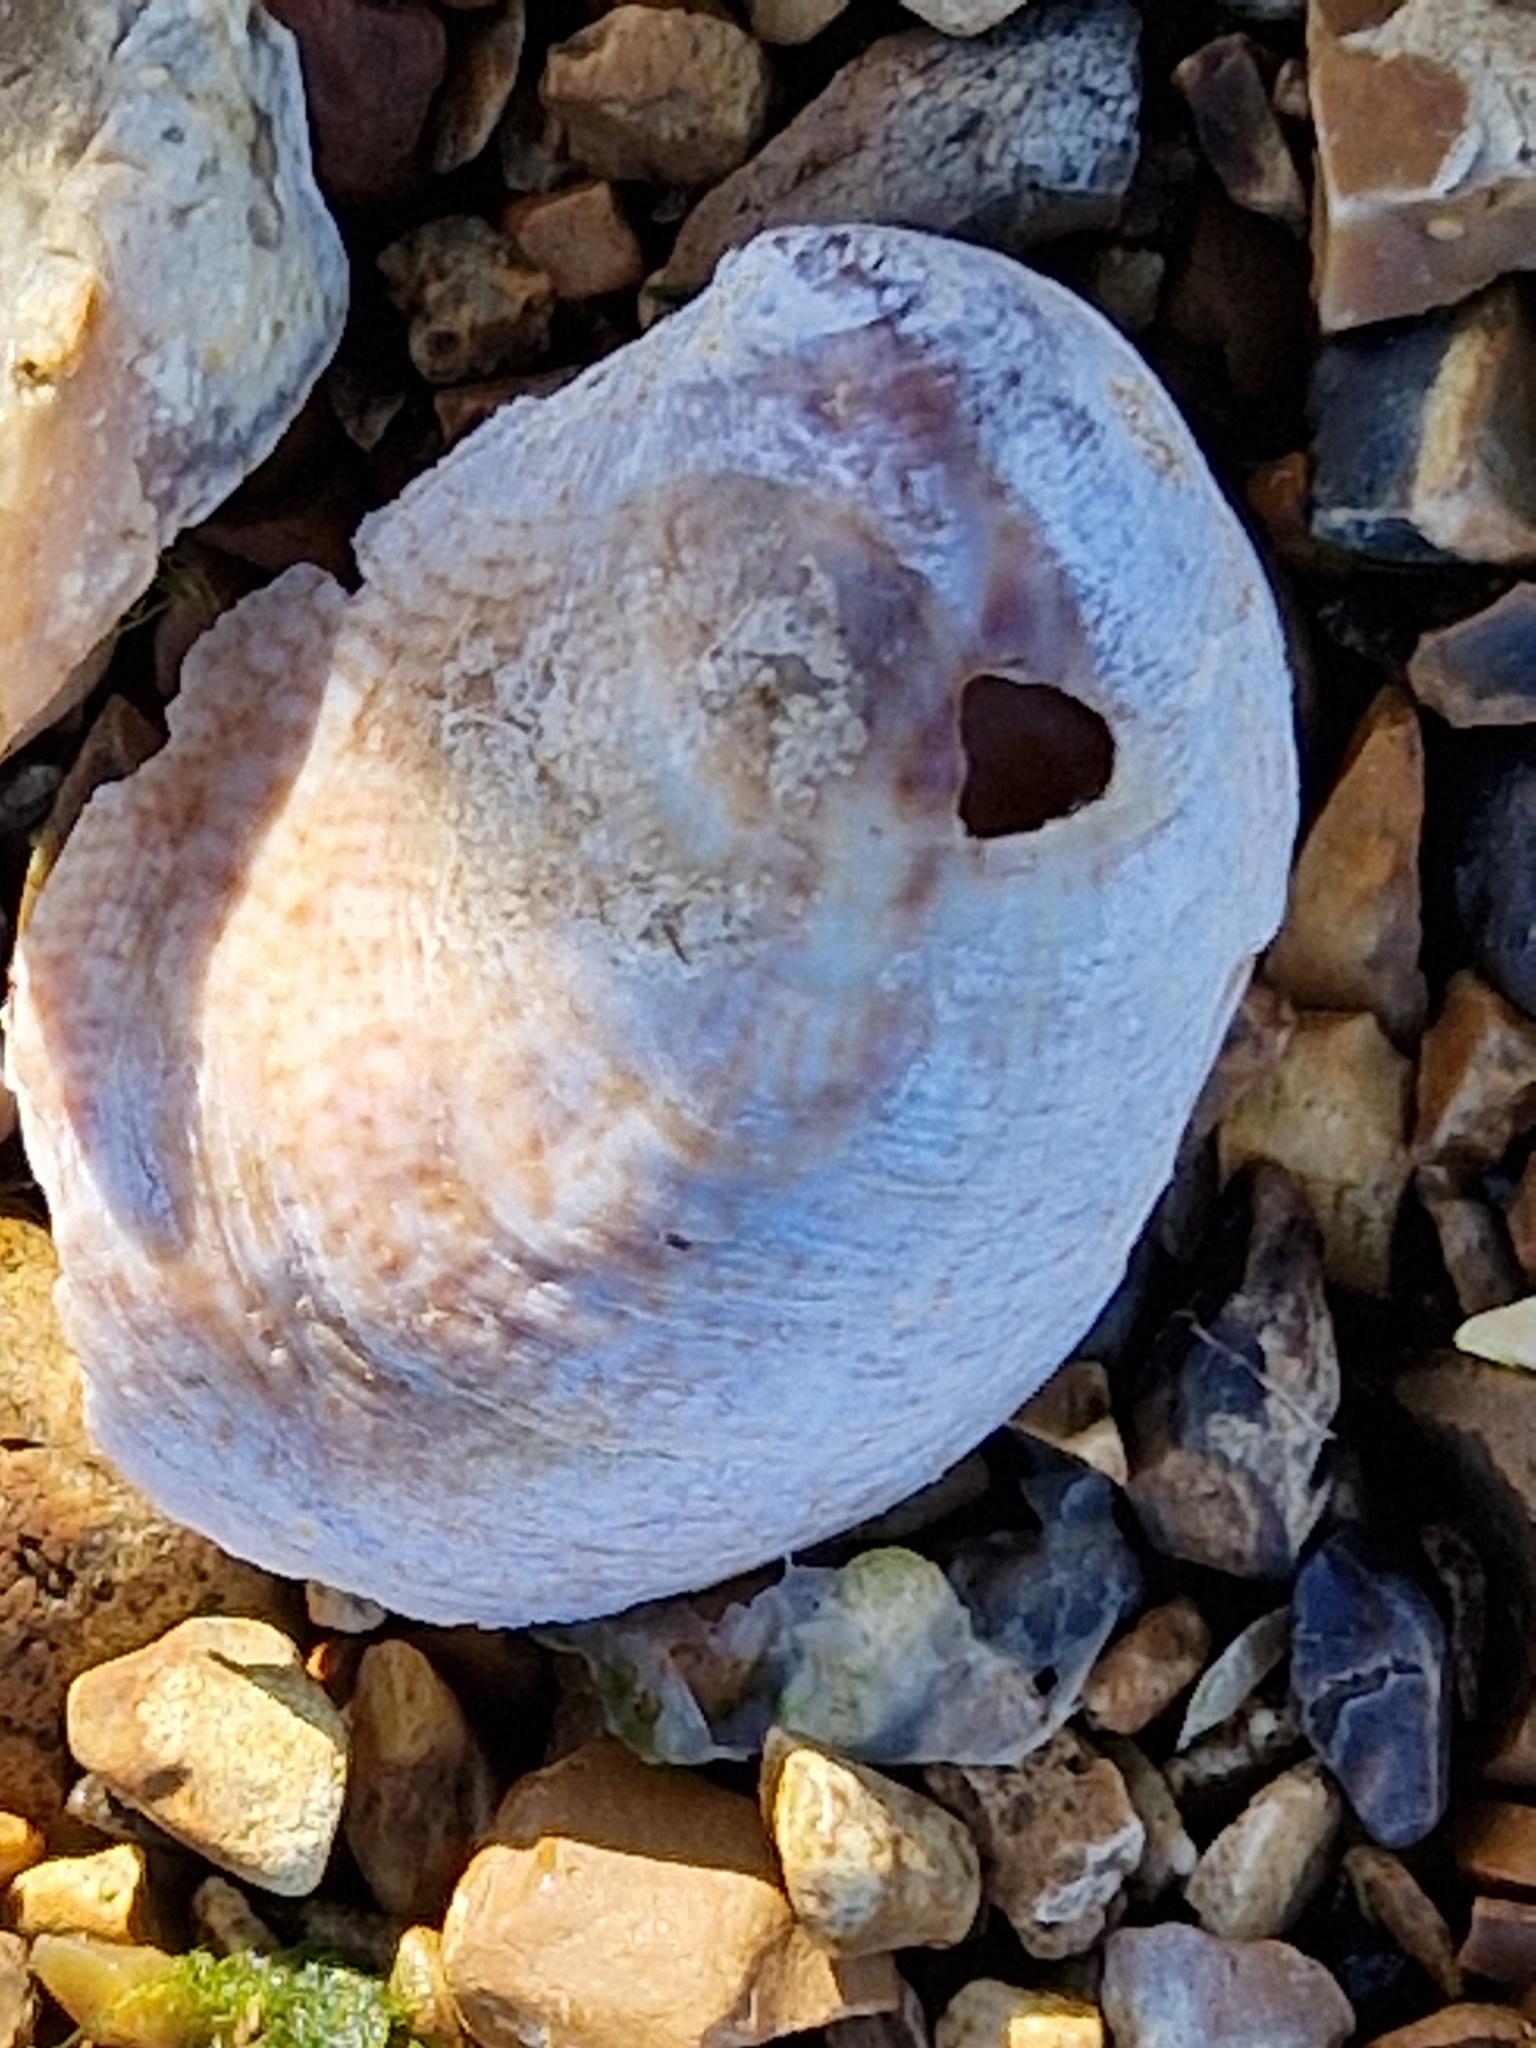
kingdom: Animalia
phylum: Mollusca
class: Gastropoda
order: Littorinimorpha
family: Calyptraeidae
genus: Crepidula
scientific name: Crepidula fornicata
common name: Slipper limpet
